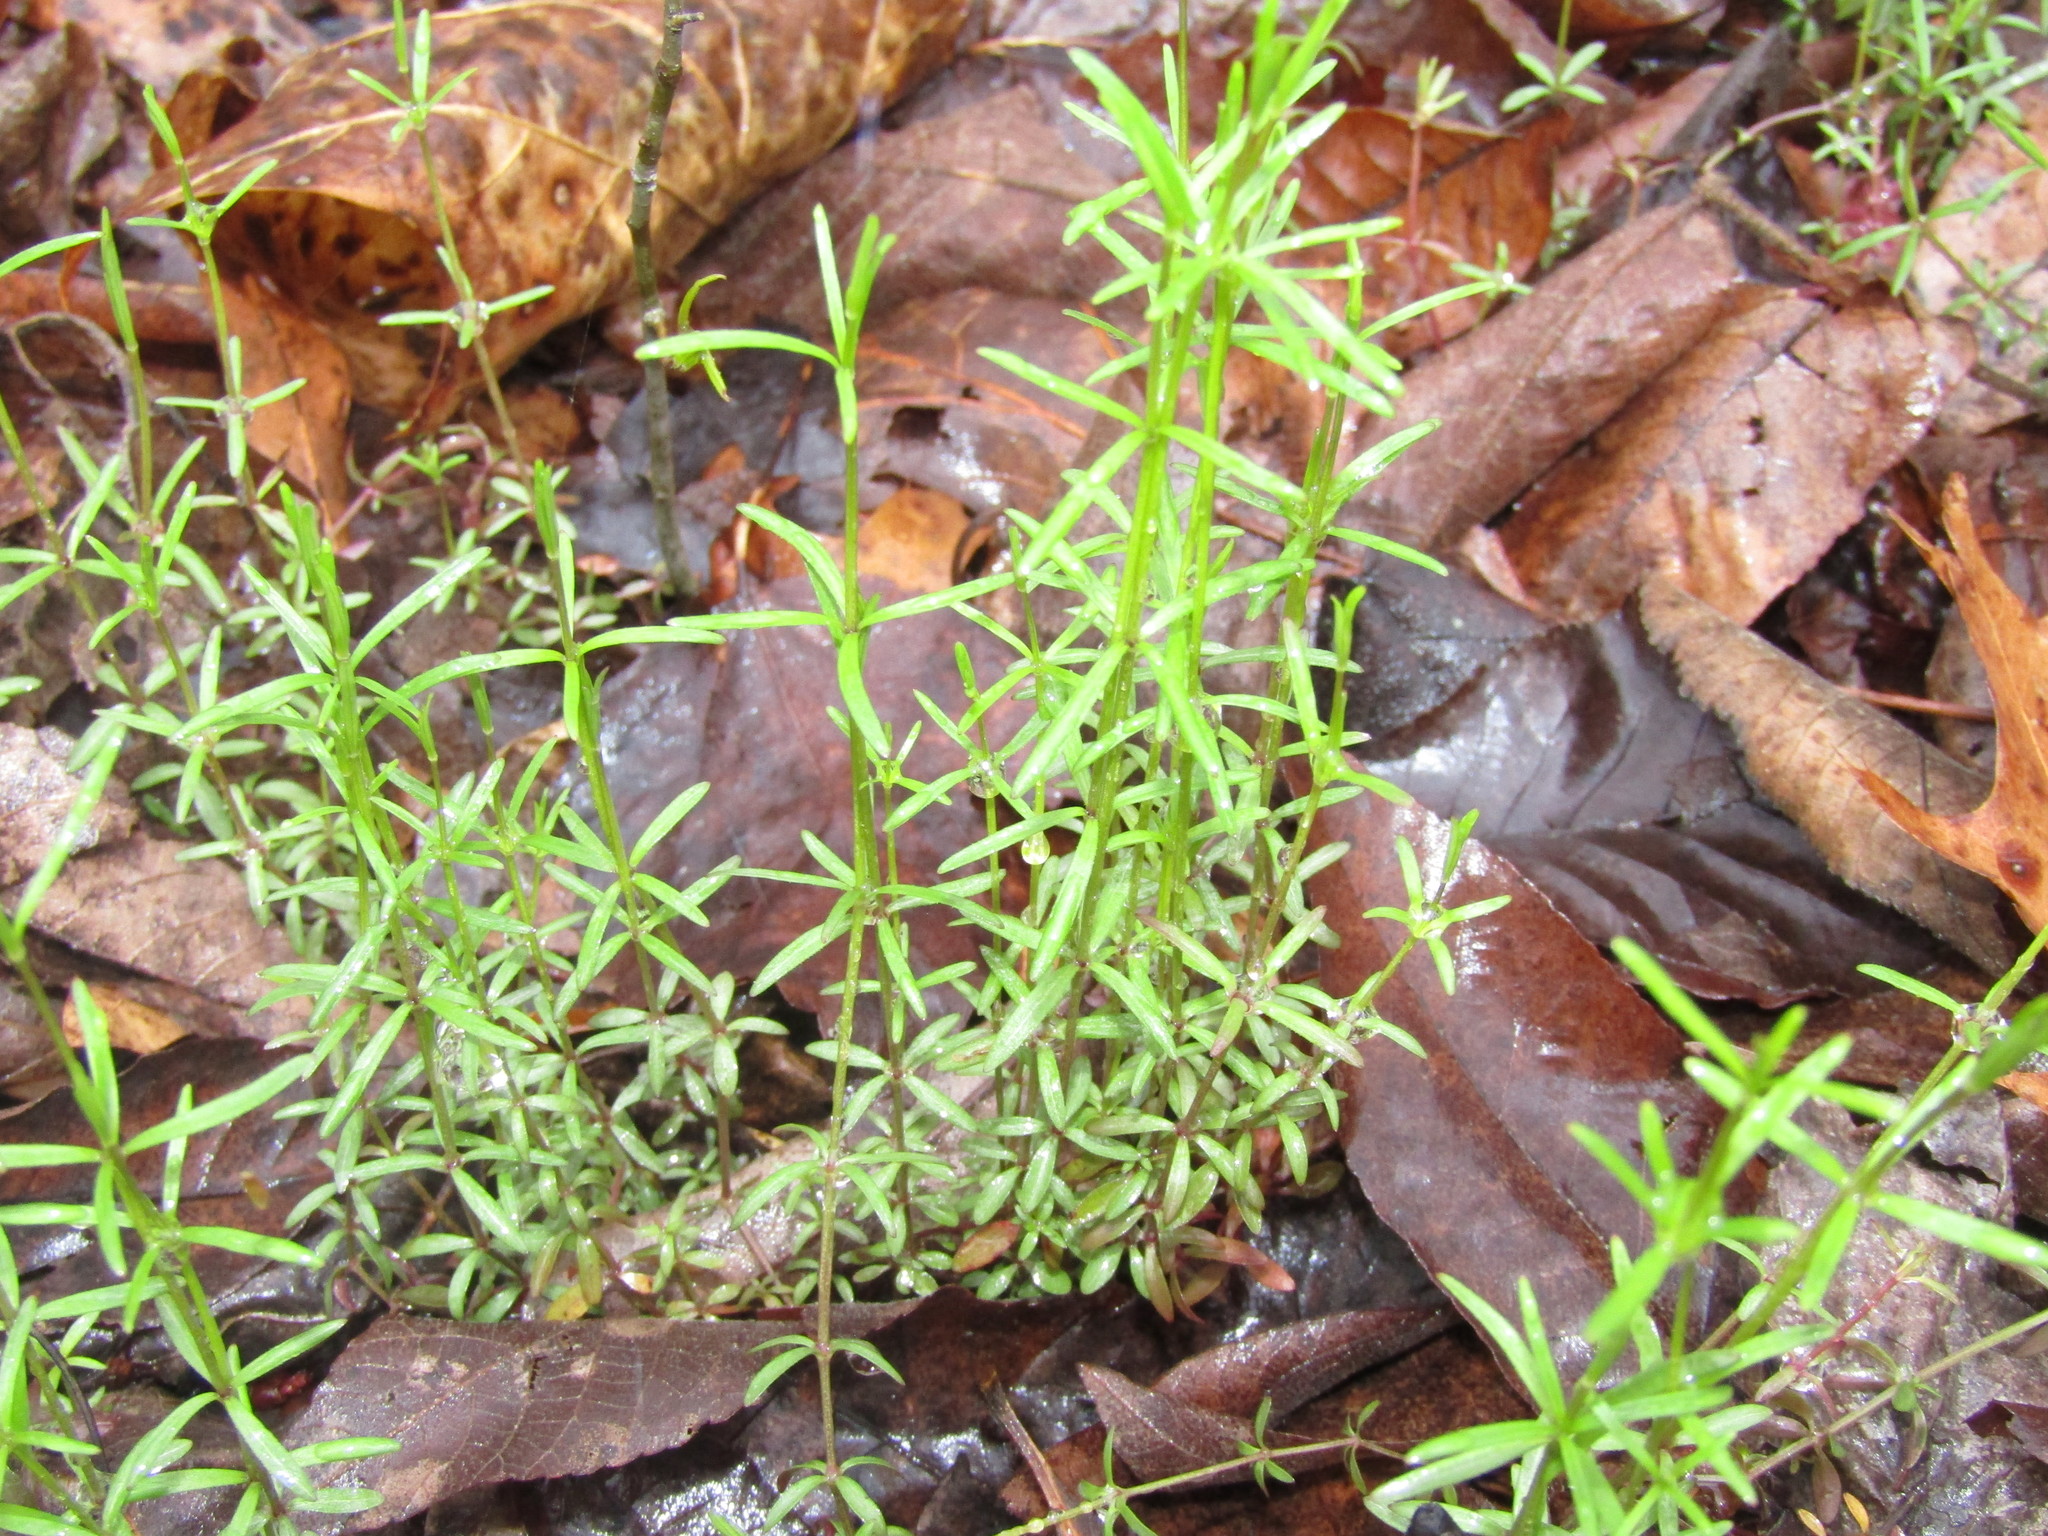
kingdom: Plantae
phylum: Tracheophyta
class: Magnoliopsida
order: Gentianales
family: Rubiaceae
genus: Galium
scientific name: Galium uniflorum
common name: One-flower bedstraw
